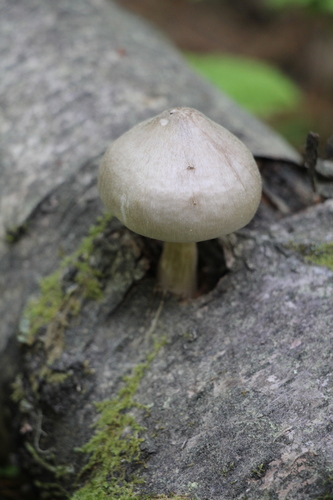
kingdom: Fungi
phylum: Basidiomycota
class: Agaricomycetes
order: Agaricales
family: Pluteaceae
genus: Pluteus
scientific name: Pluteus salicinus
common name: Willow shield
